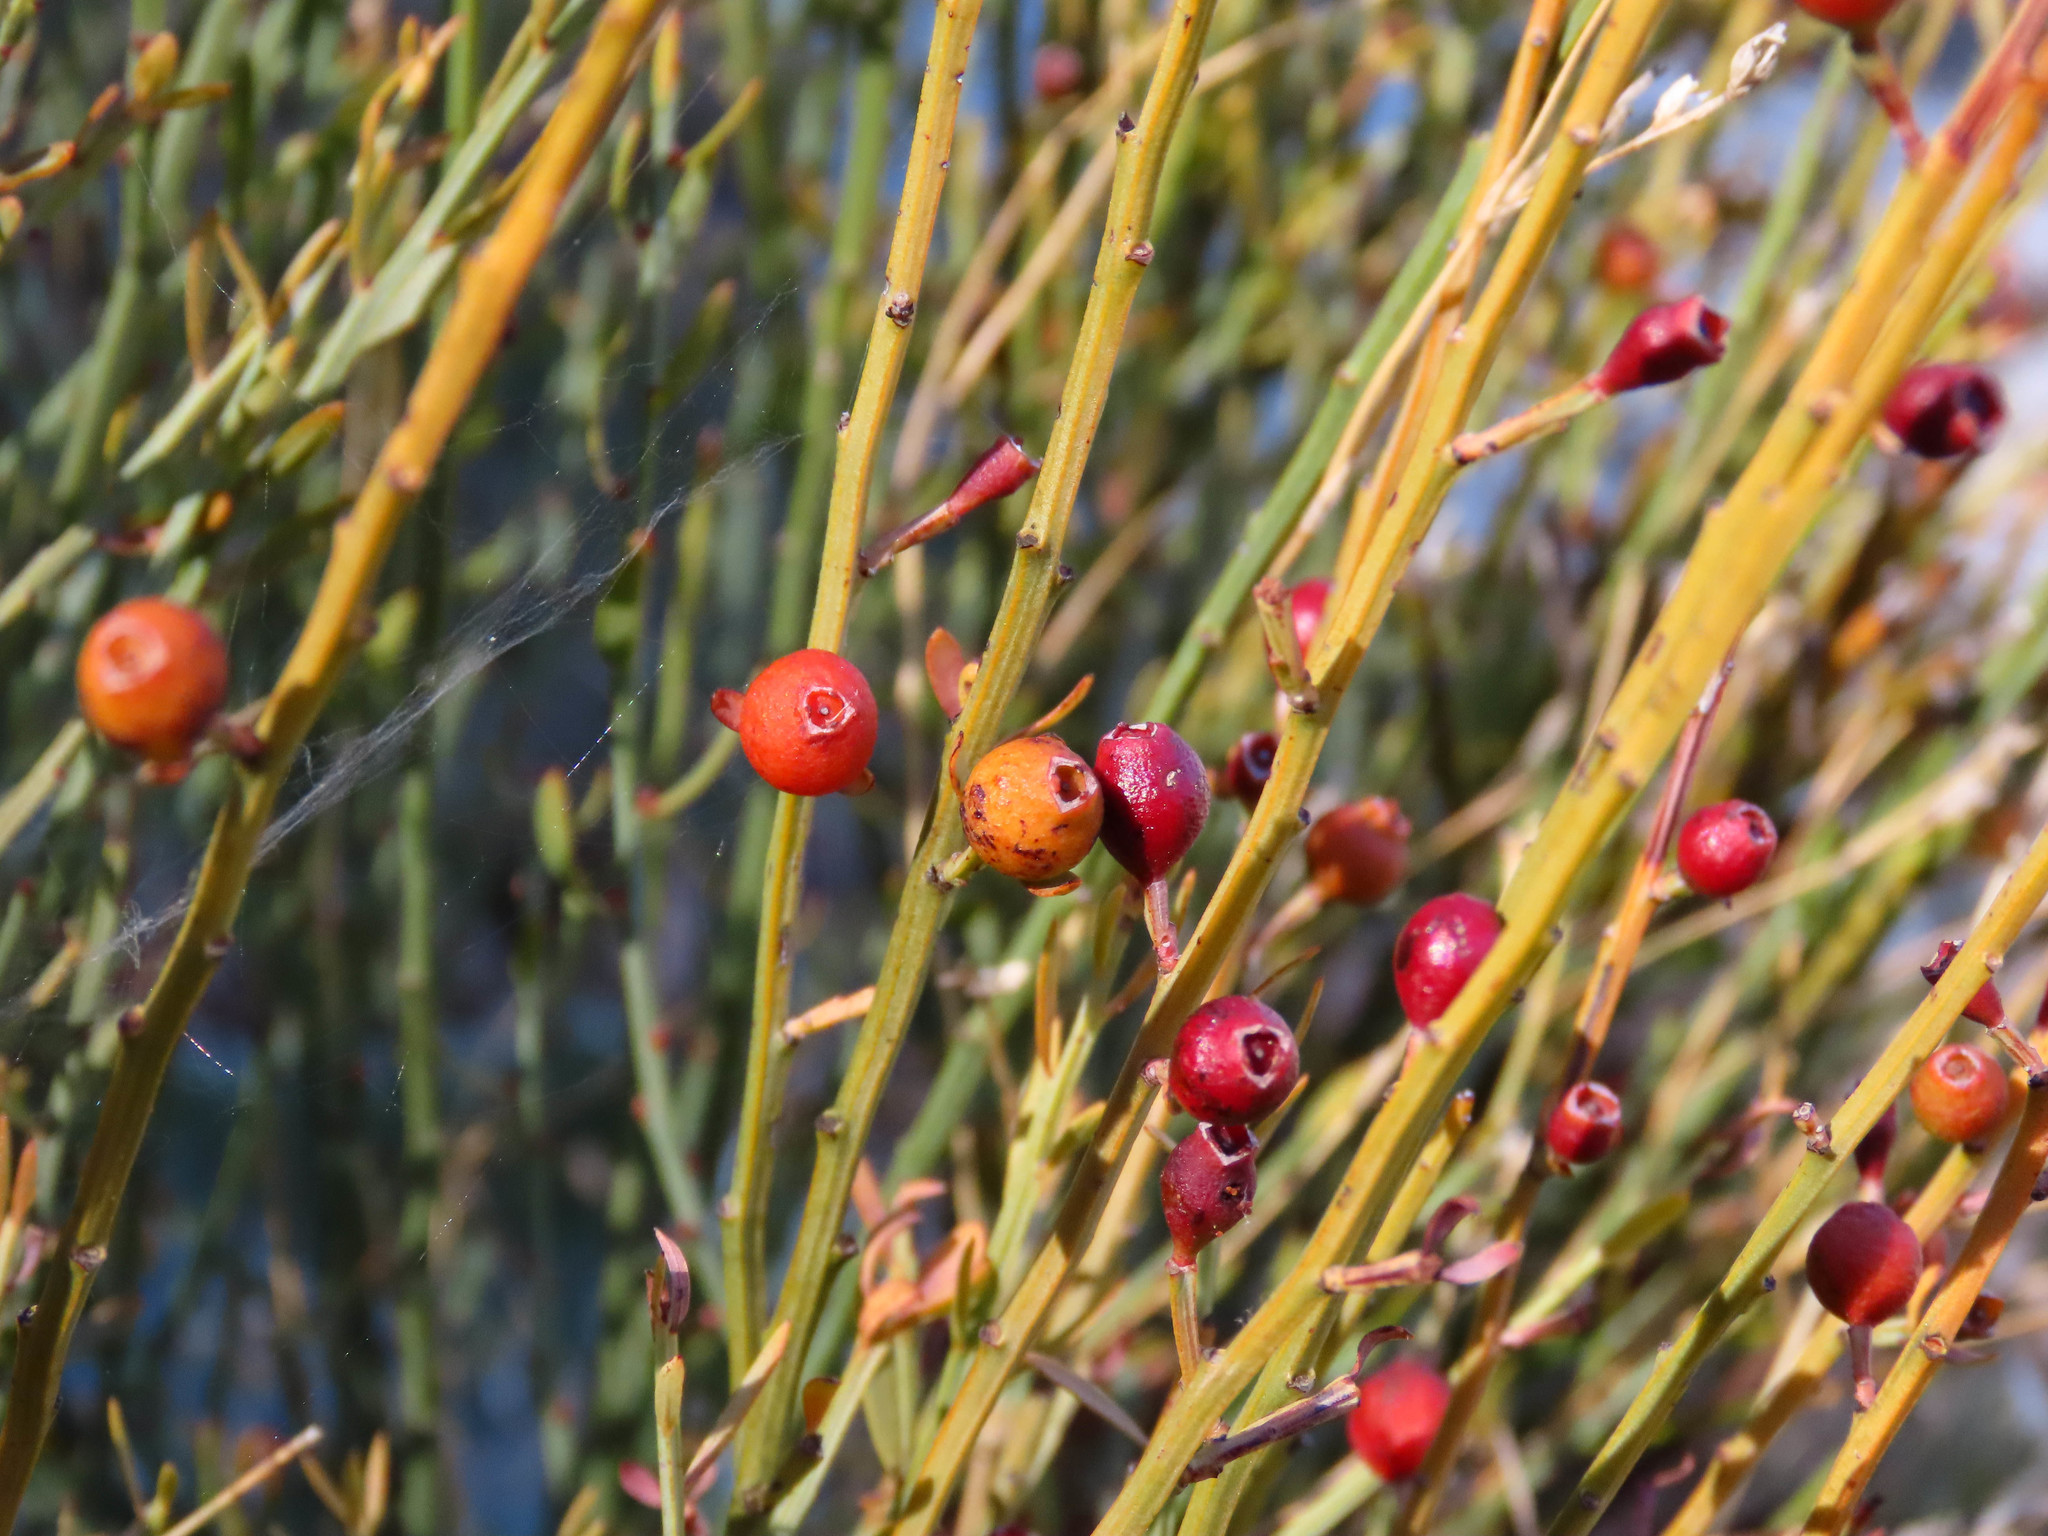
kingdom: Plantae
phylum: Tracheophyta
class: Magnoliopsida
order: Santalales
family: Santalaceae
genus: Osyris
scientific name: Osyris alba
